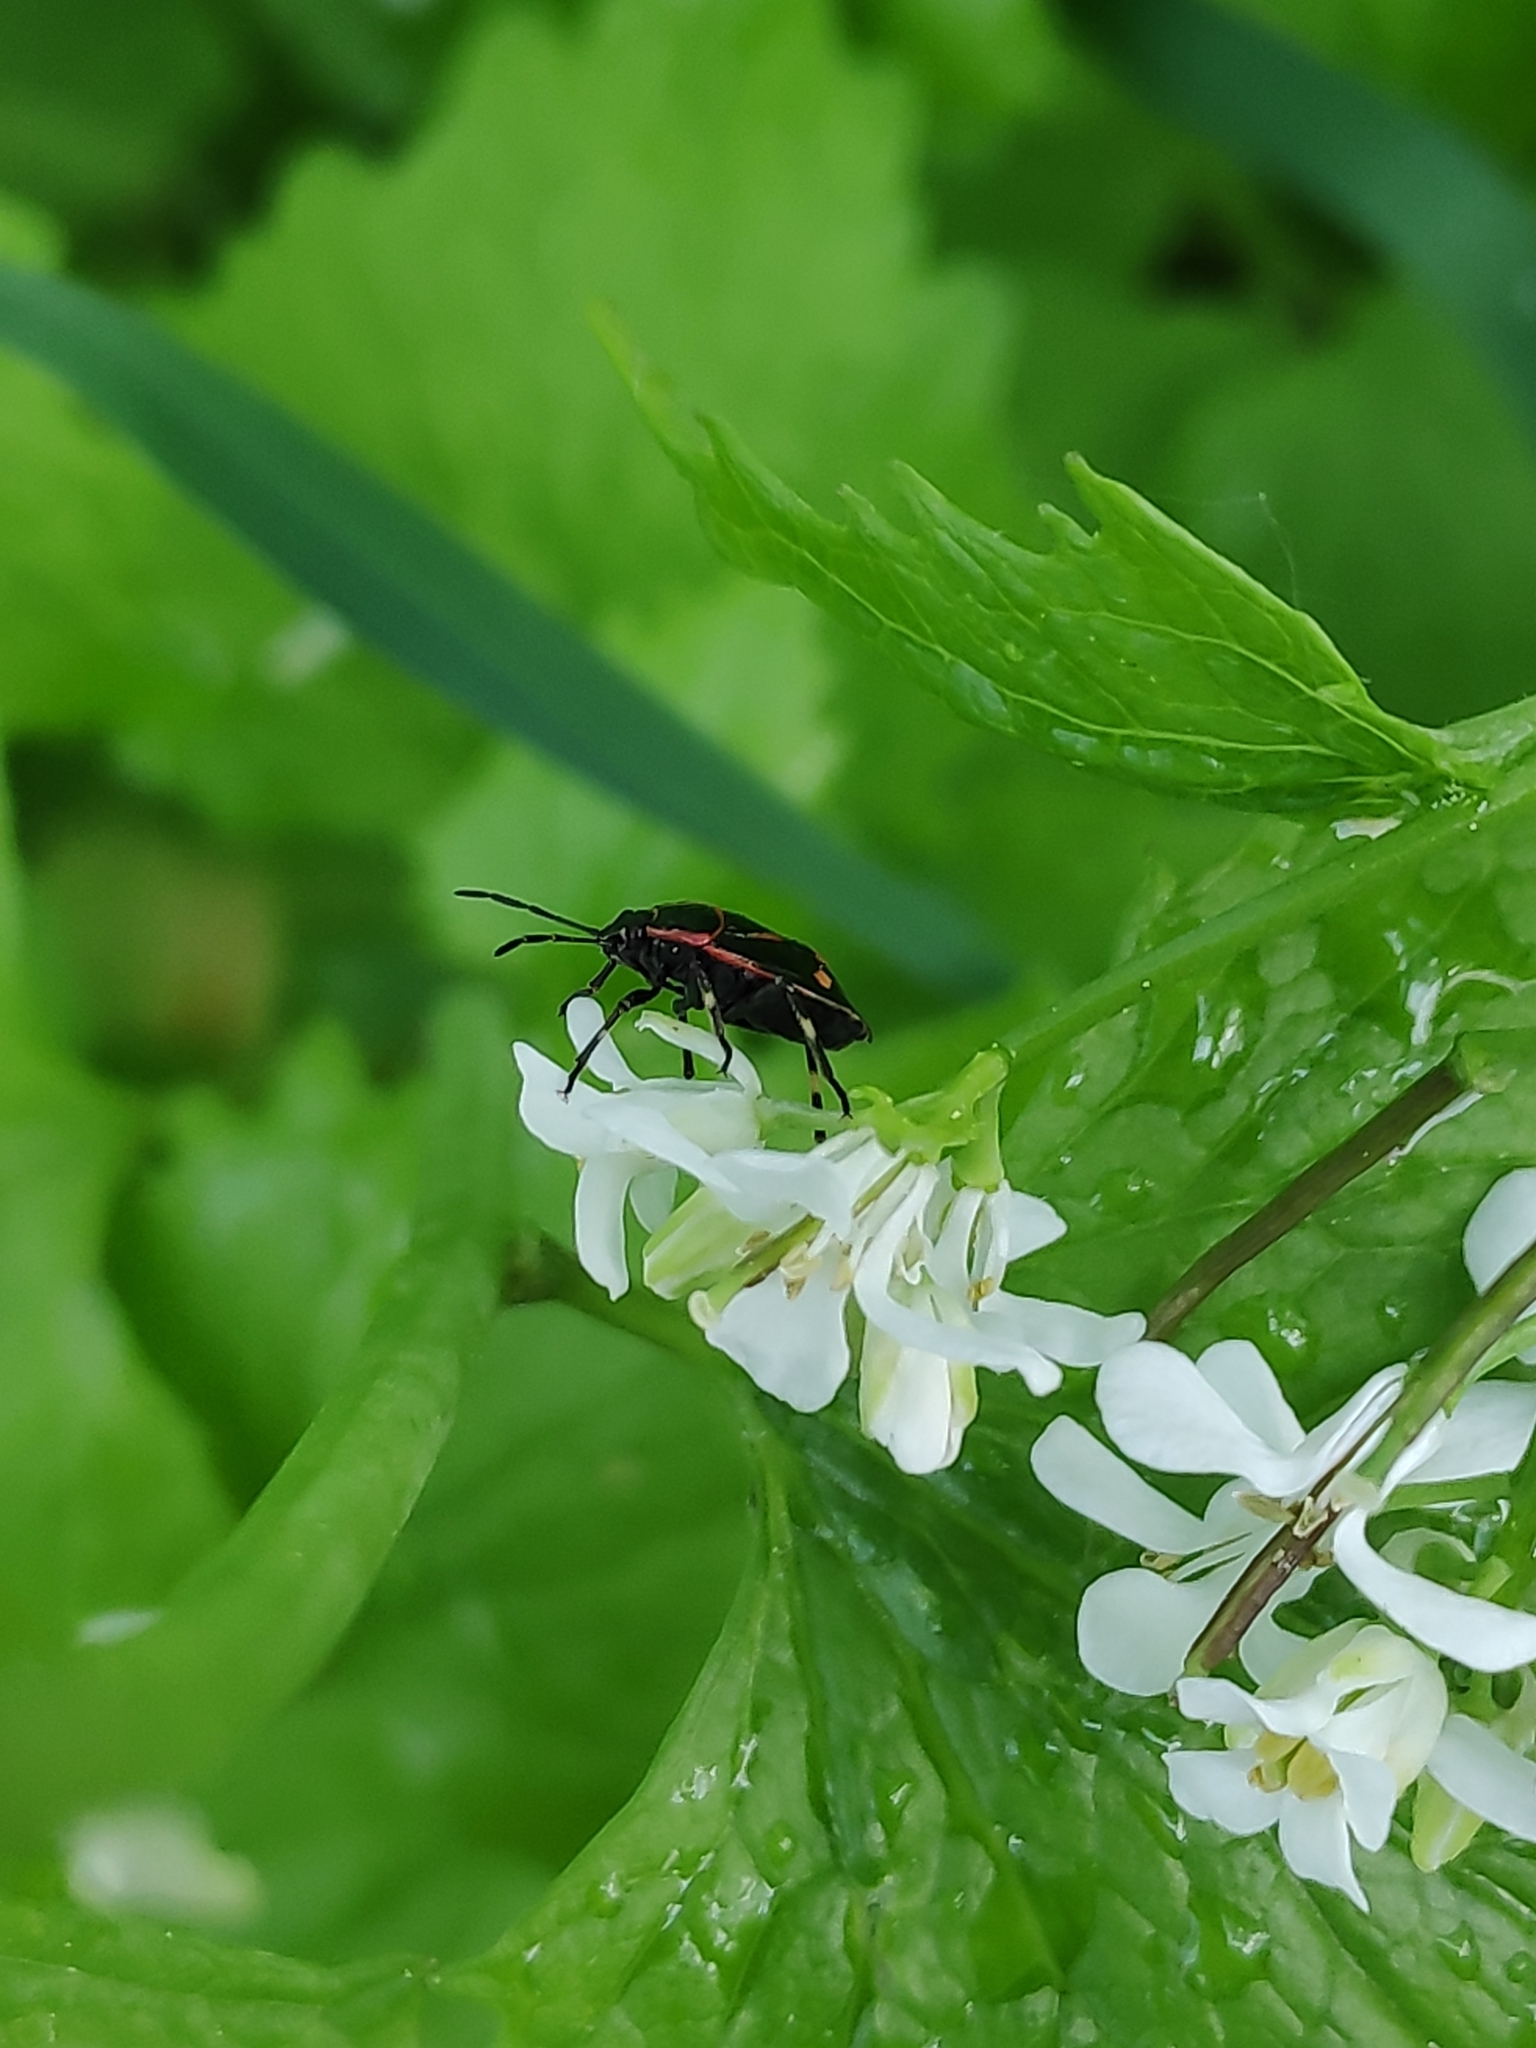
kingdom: Animalia
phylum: Arthropoda
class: Insecta
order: Hemiptera
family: Pentatomidae
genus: Eurydema
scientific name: Eurydema oleracea
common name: Cabbage bug
